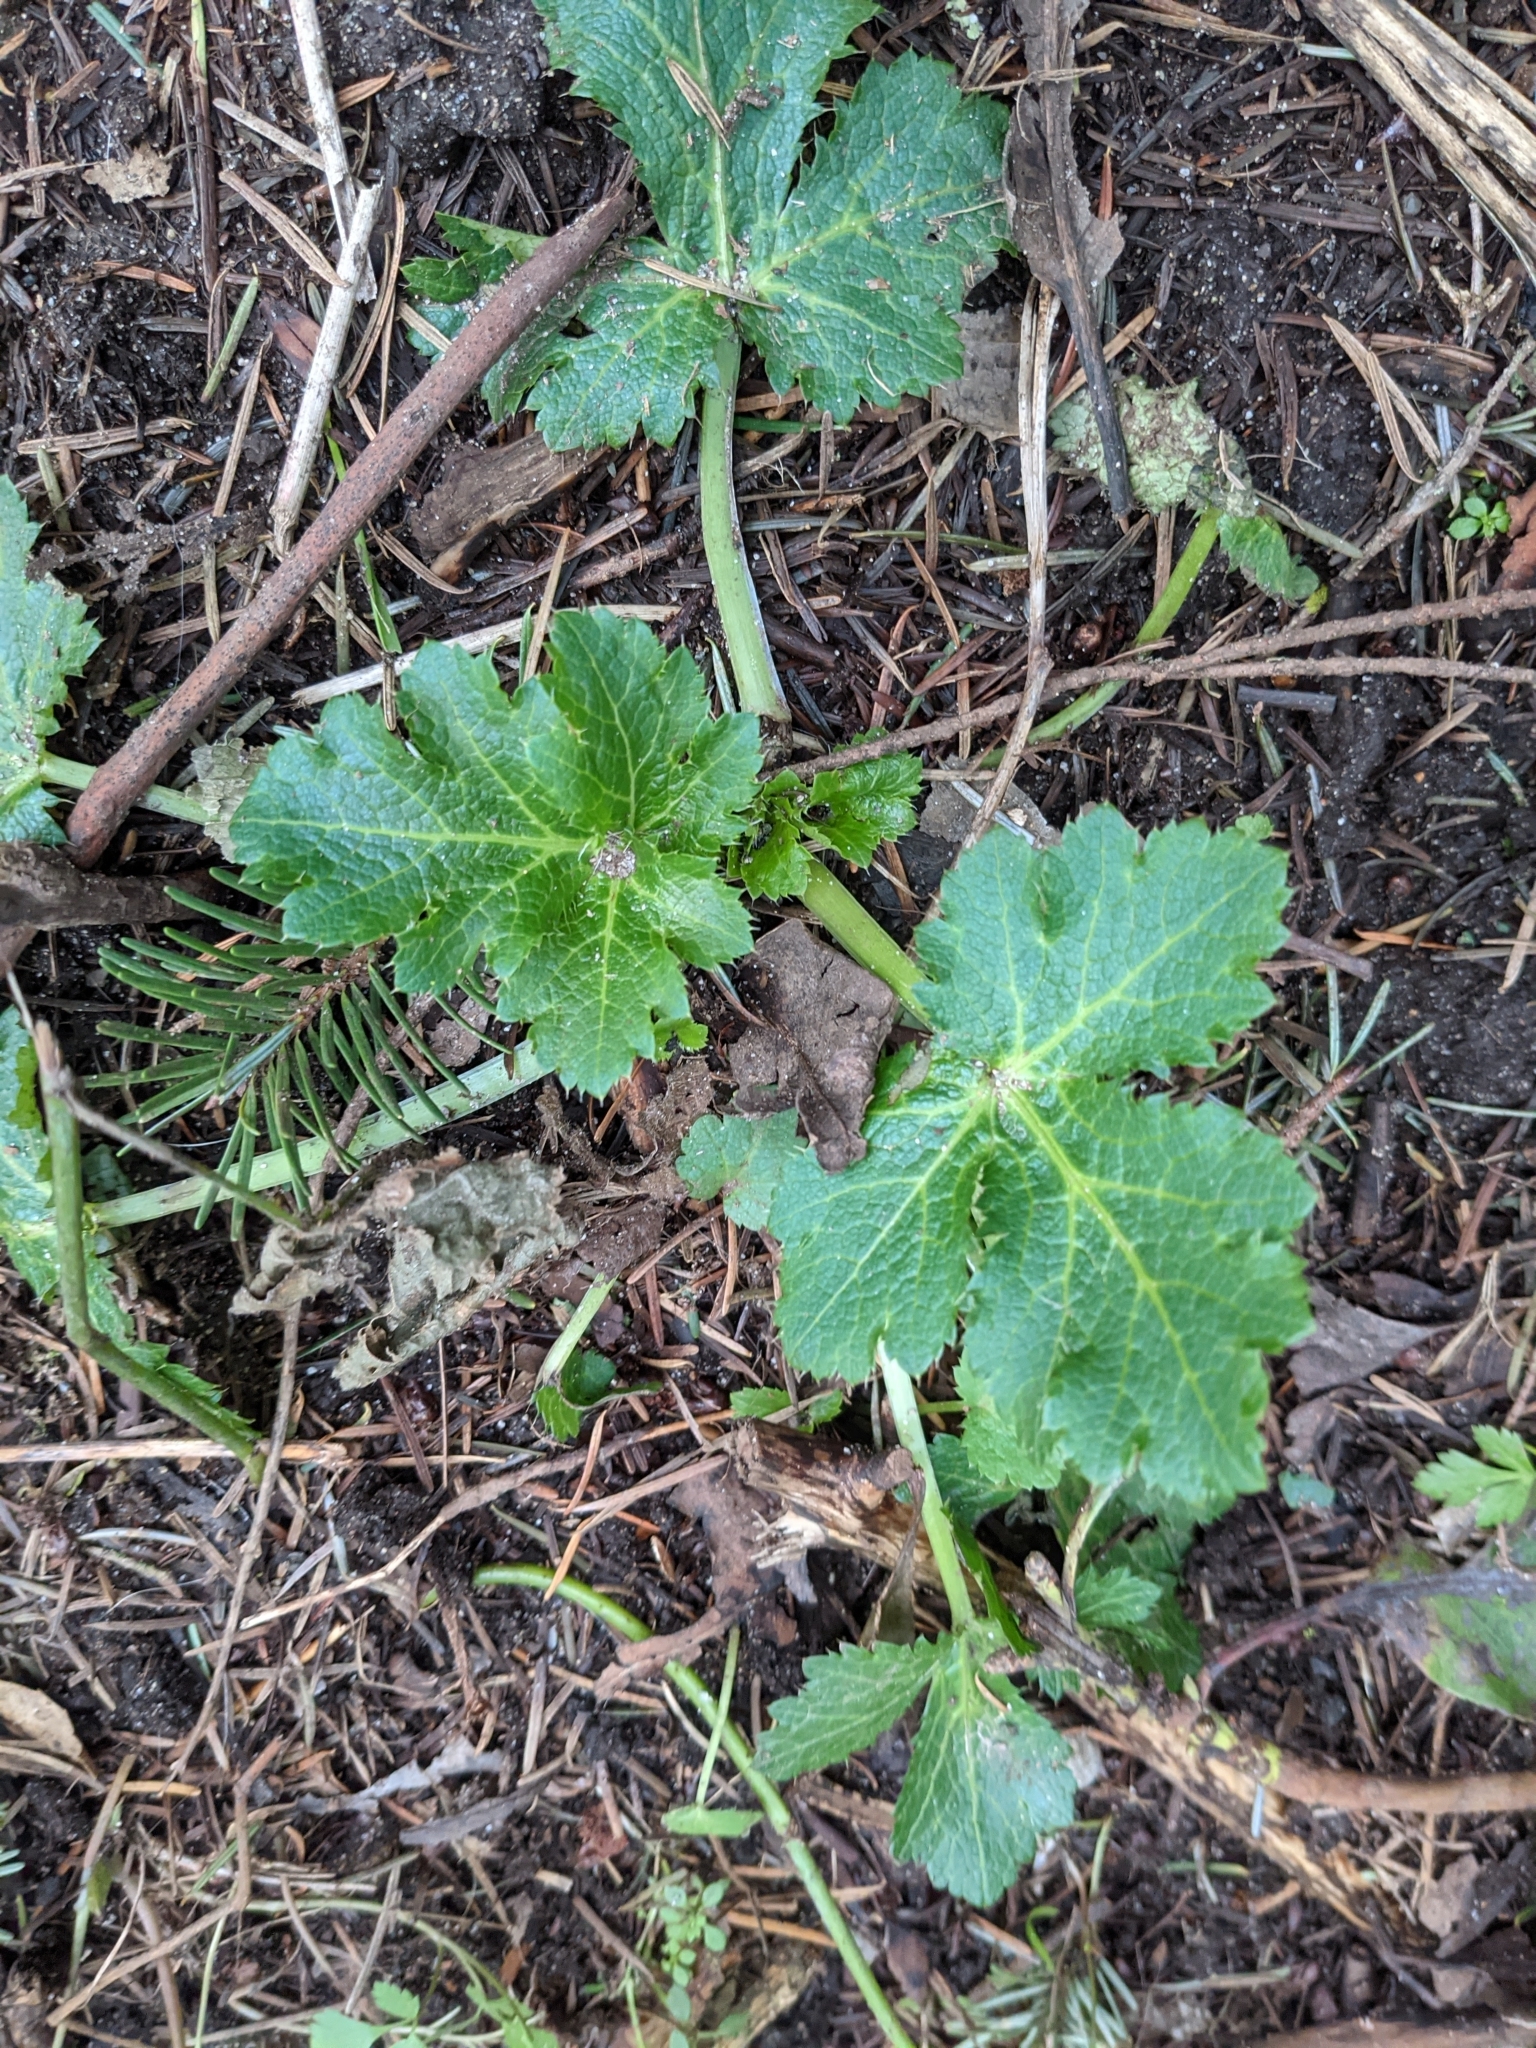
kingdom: Plantae
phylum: Tracheophyta
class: Magnoliopsida
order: Apiales
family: Apiaceae
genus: Sanicula
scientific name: Sanicula crassicaulis
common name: Western snakeroot
